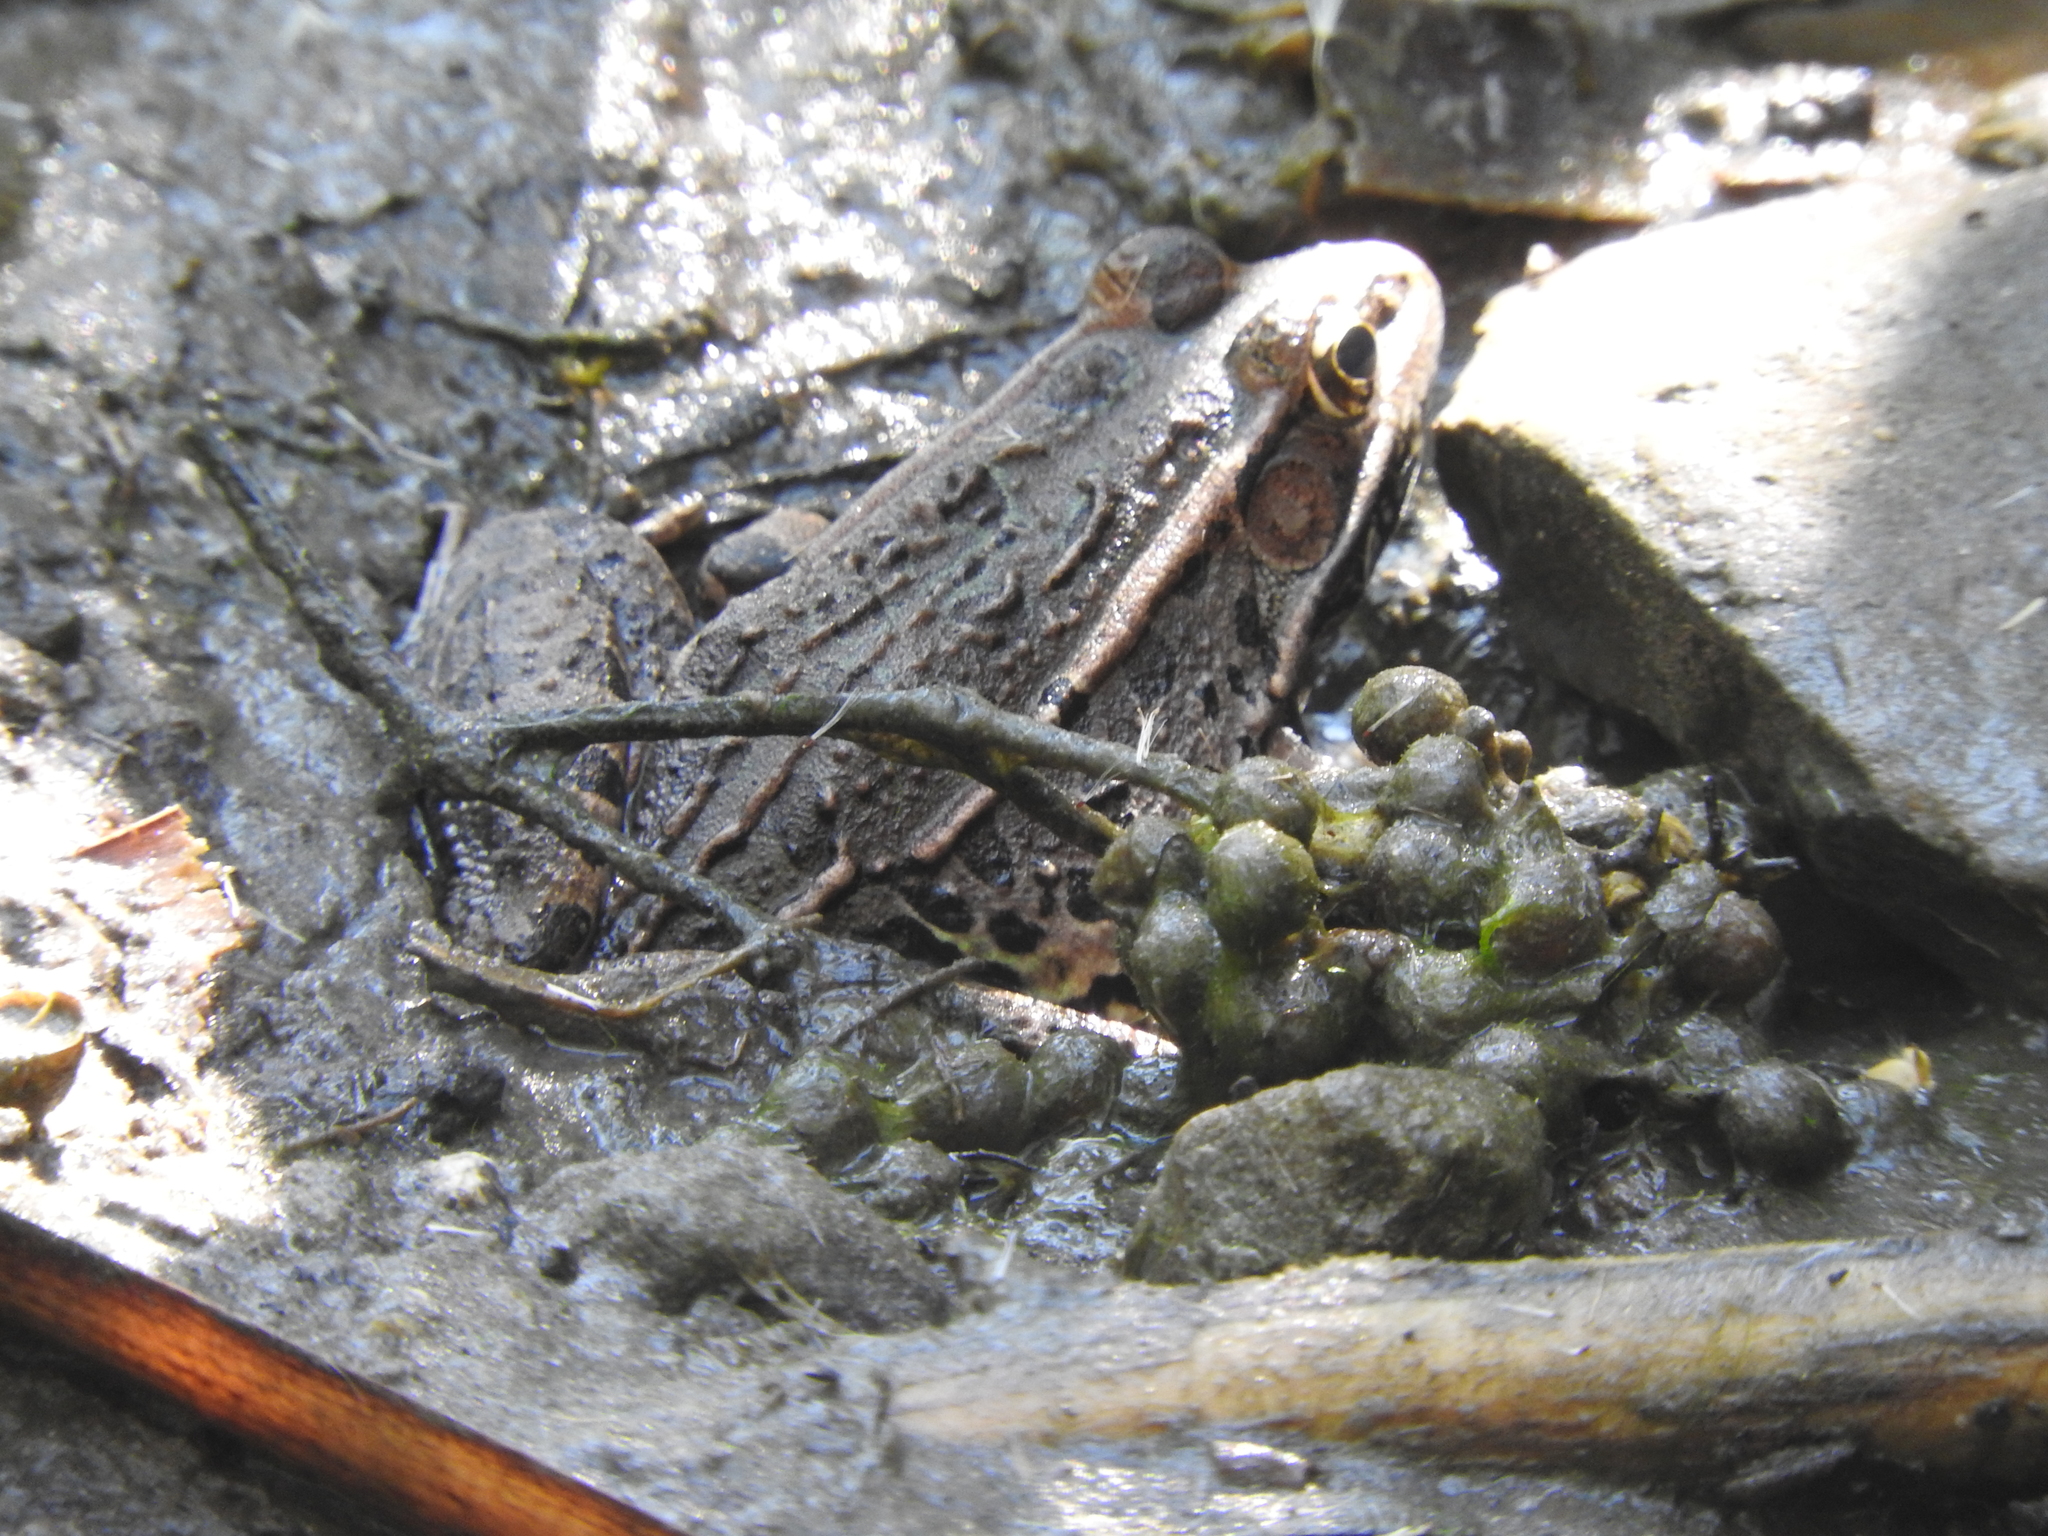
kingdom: Animalia
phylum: Chordata
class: Amphibia
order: Anura
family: Ranidae
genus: Lithobates
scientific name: Lithobates neovolcanicus
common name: Transverse volcanic leopard frog
